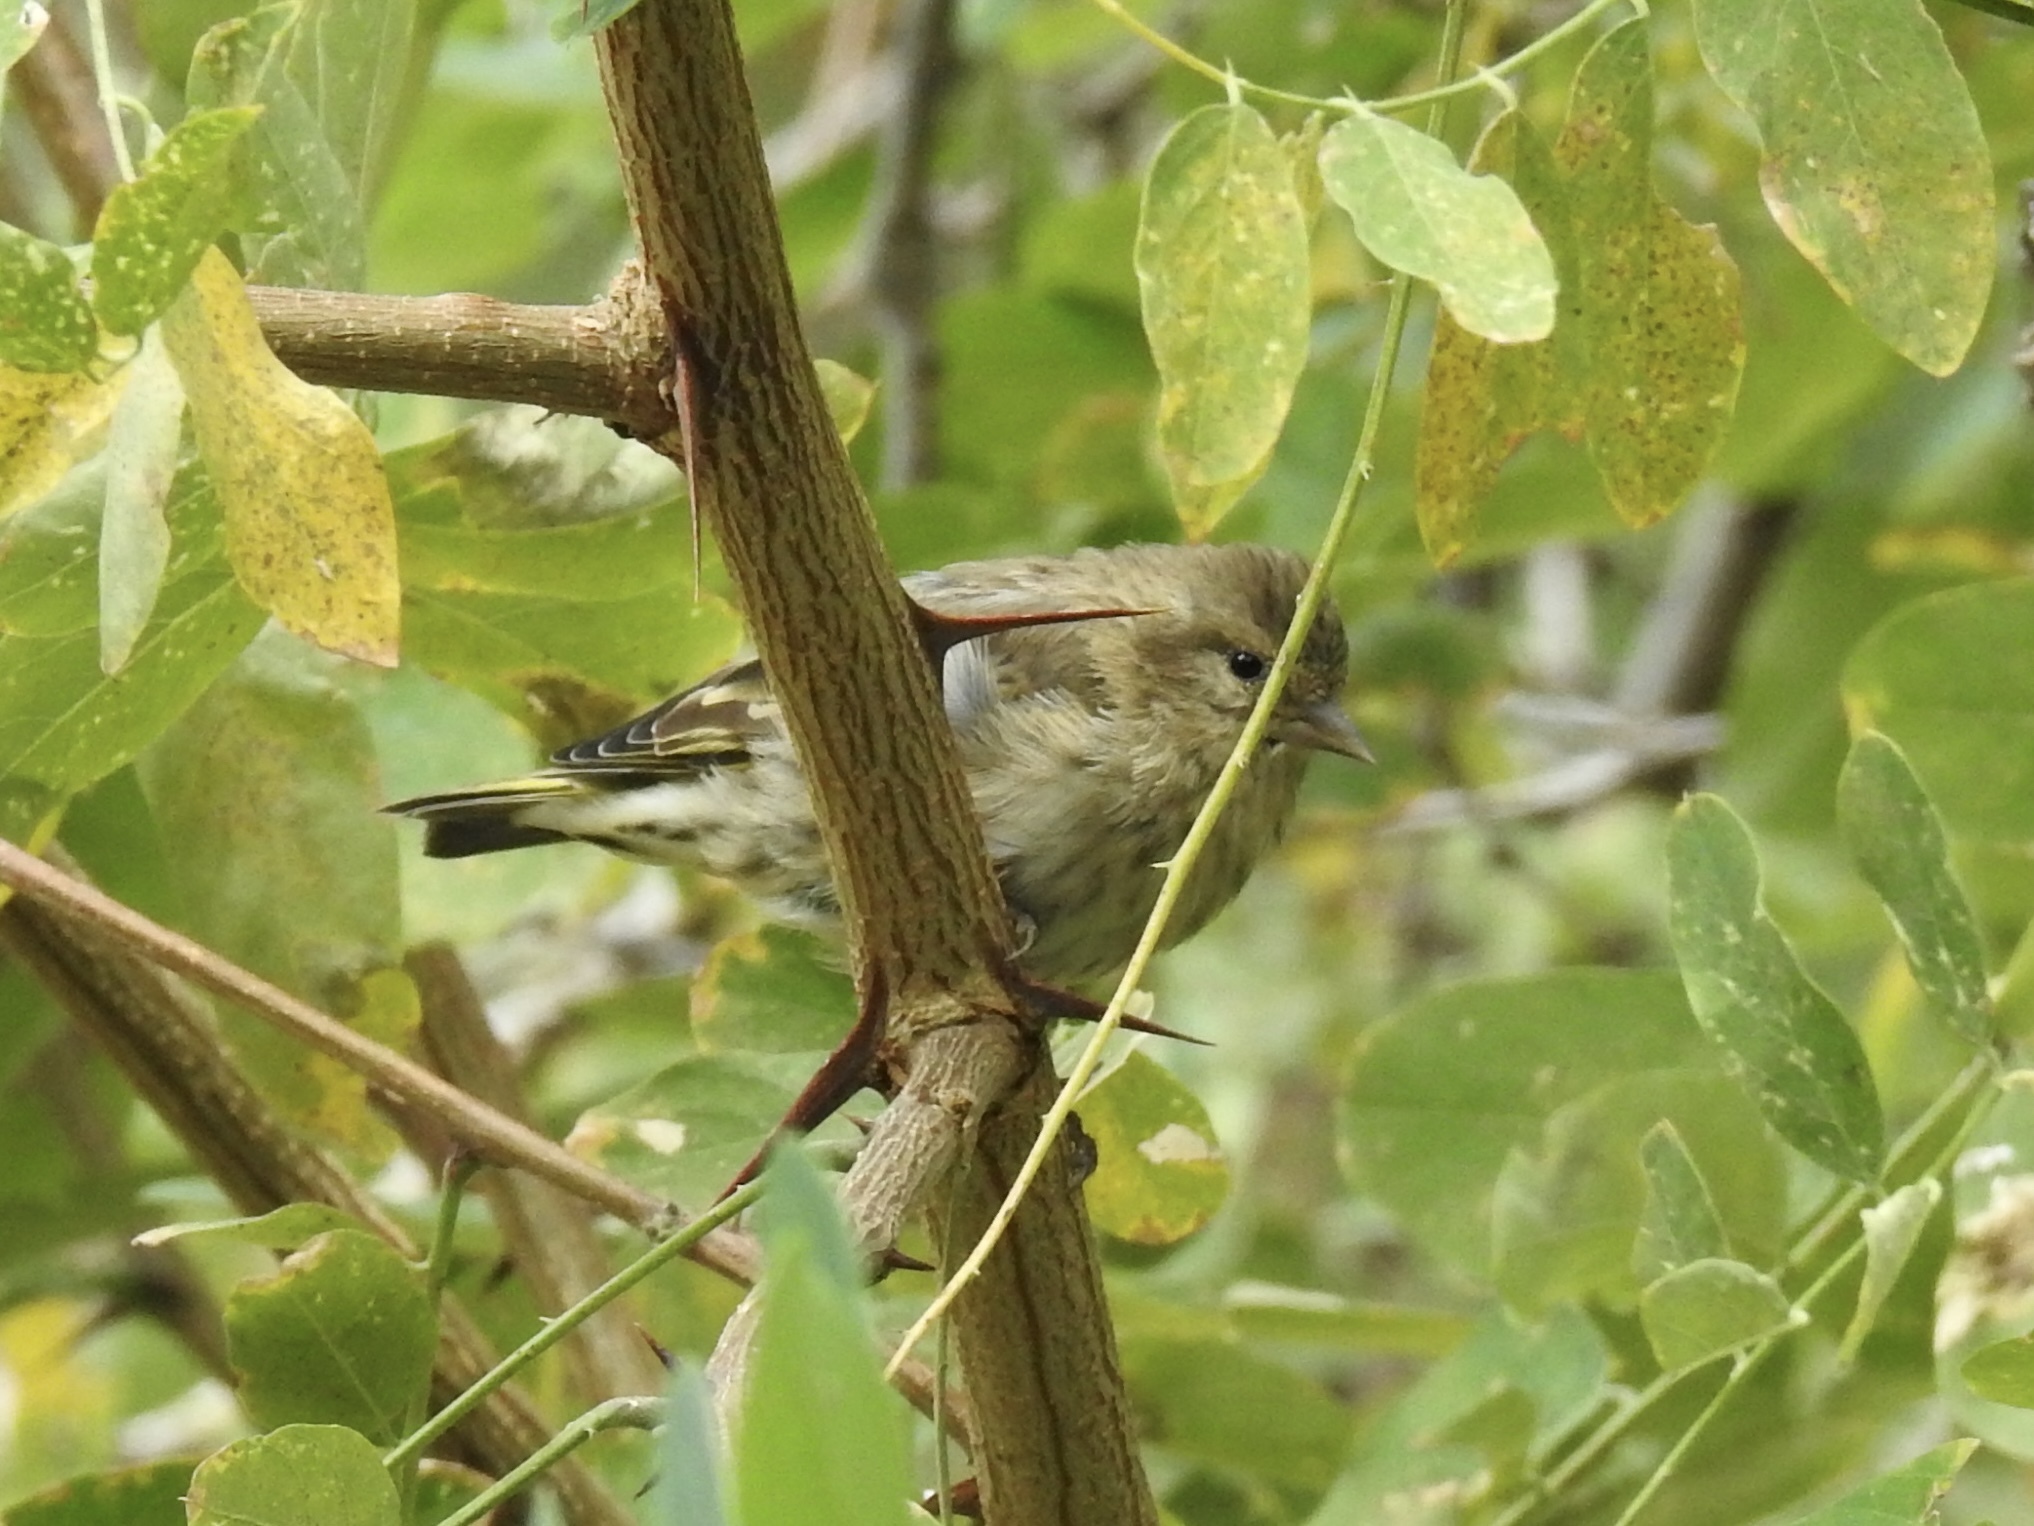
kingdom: Animalia
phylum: Chordata
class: Aves
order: Passeriformes
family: Fringillidae
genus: Spinus
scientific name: Spinus pinus
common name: Pine siskin
